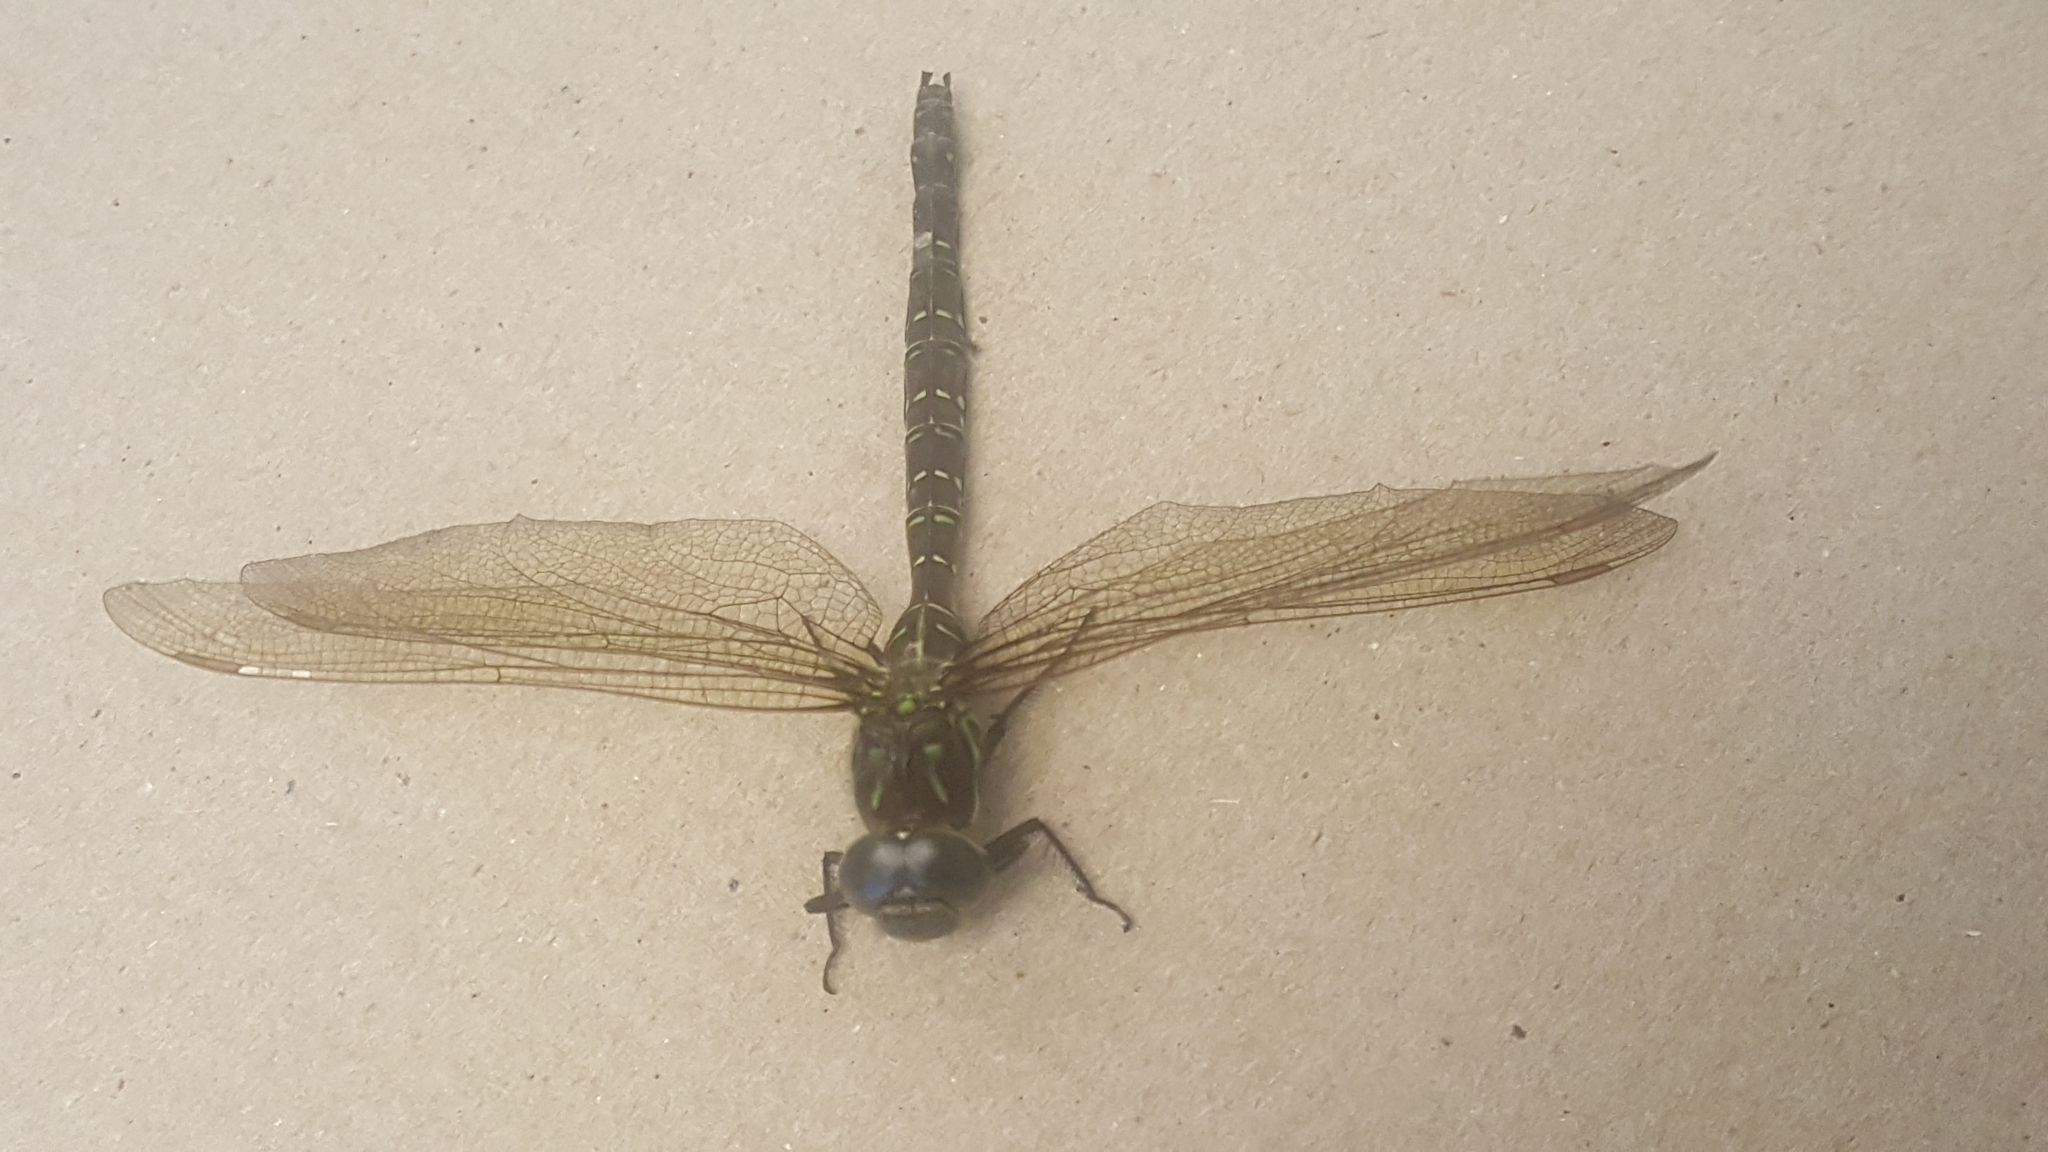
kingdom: Animalia
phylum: Arthropoda
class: Insecta
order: Odonata
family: Aeshnidae
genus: Aeshna
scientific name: Aeshna umbrosa
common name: Shadow darner
